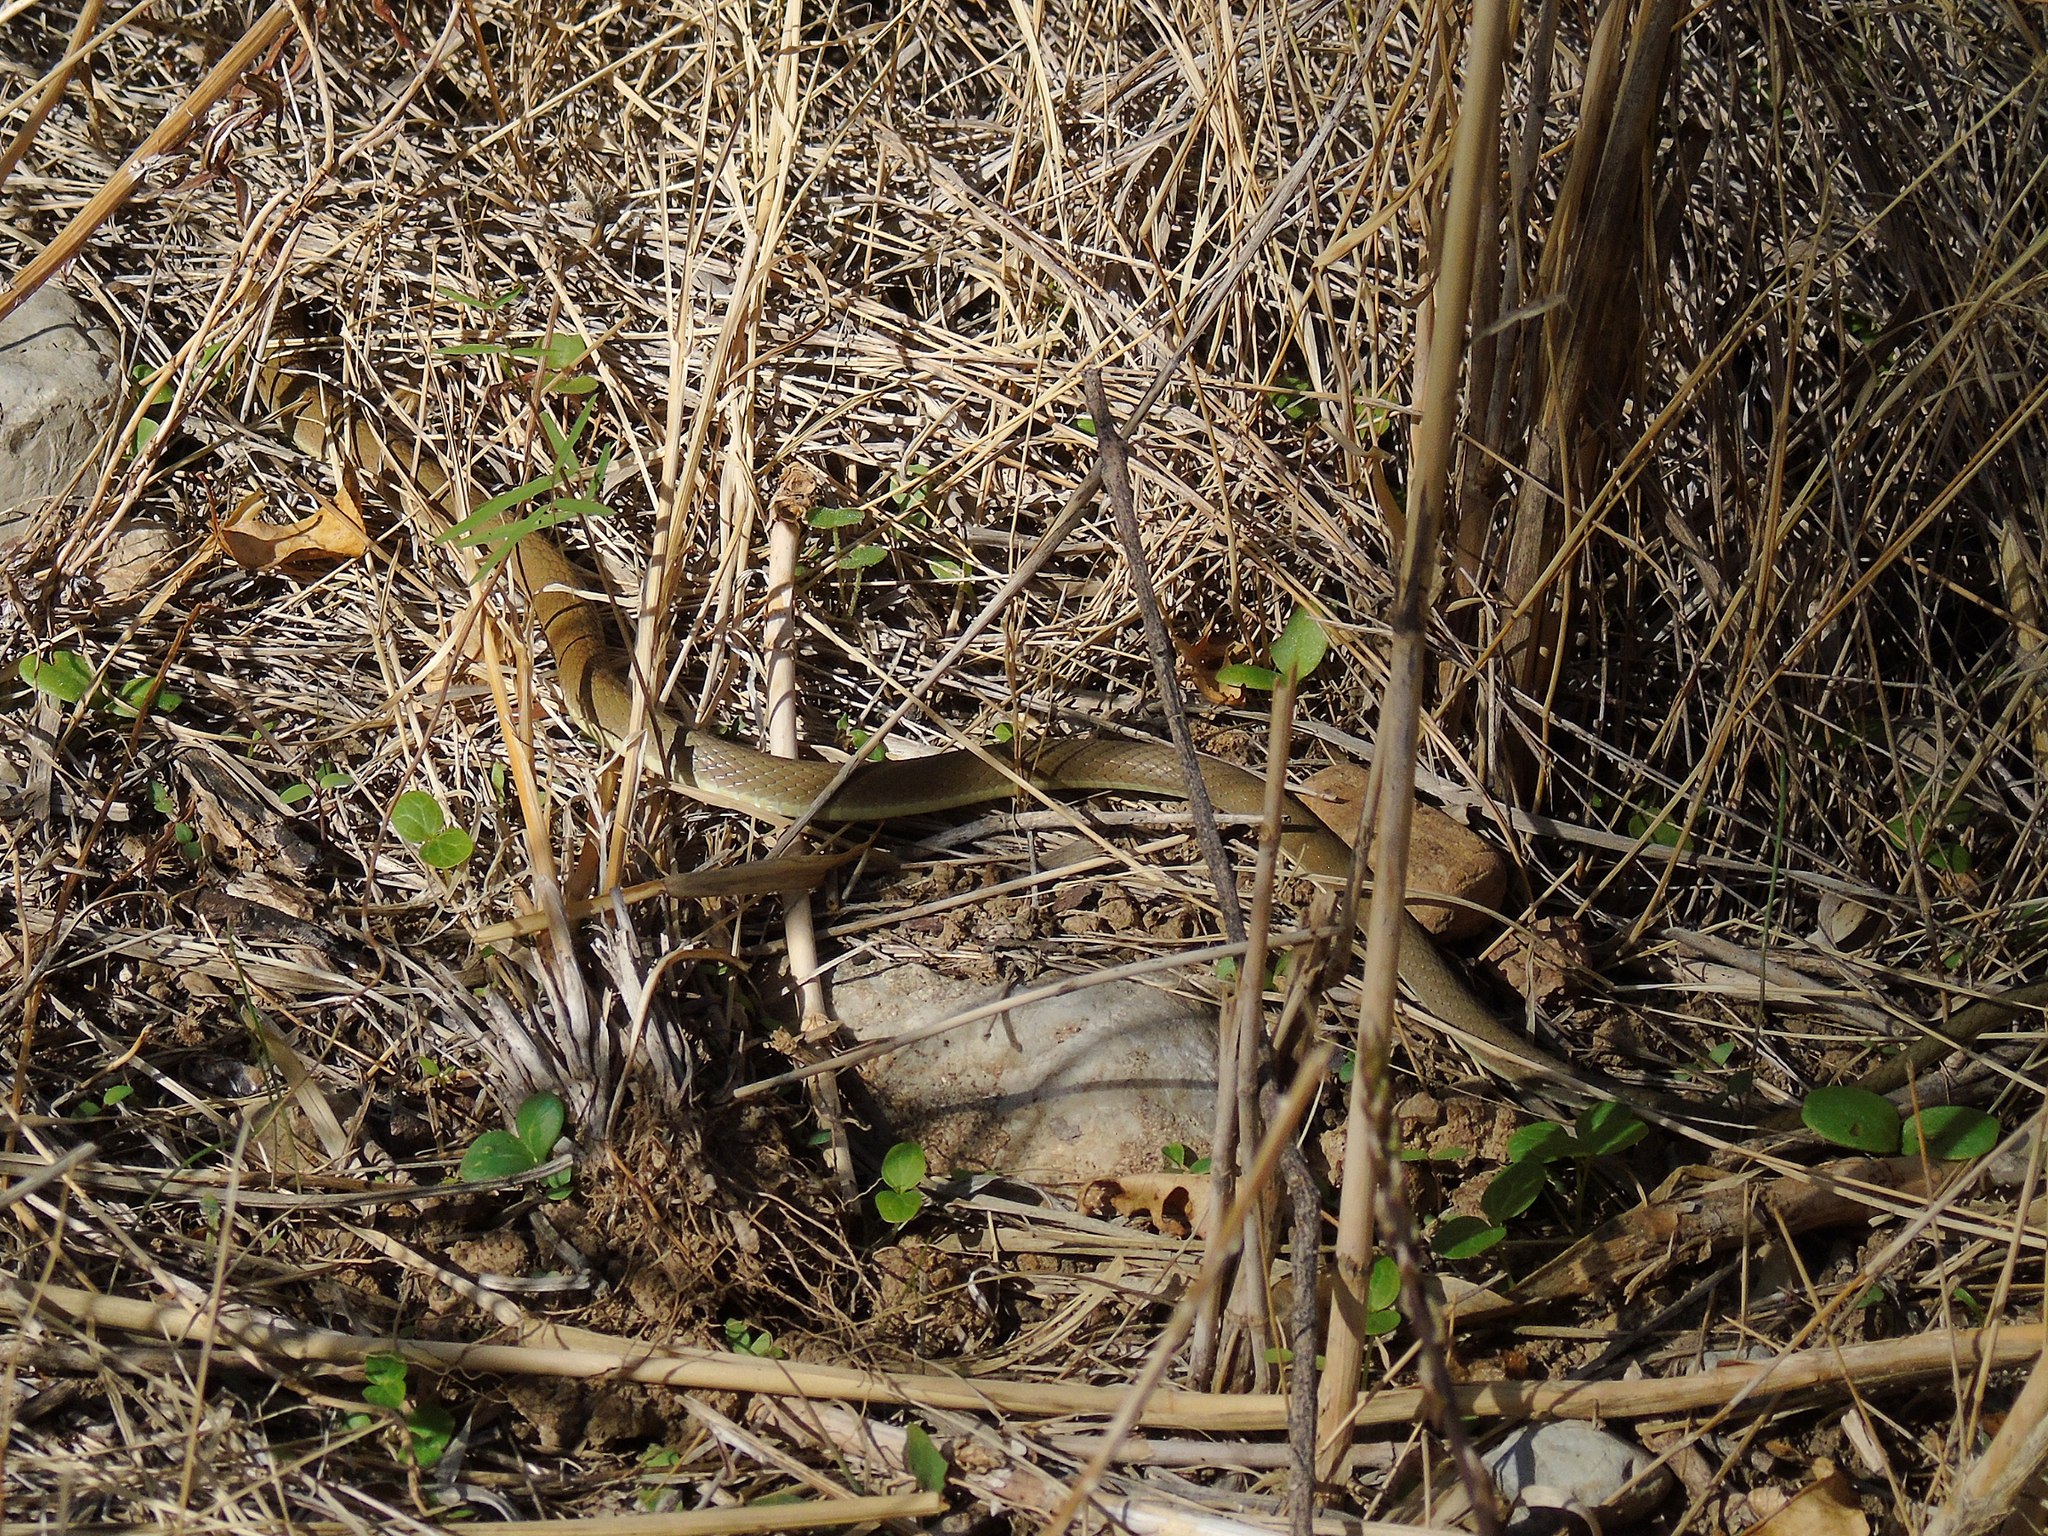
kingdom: Animalia
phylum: Chordata
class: Squamata
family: Colubridae
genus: Platyceps
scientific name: Platyceps najadum
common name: Dahl's whip snake
